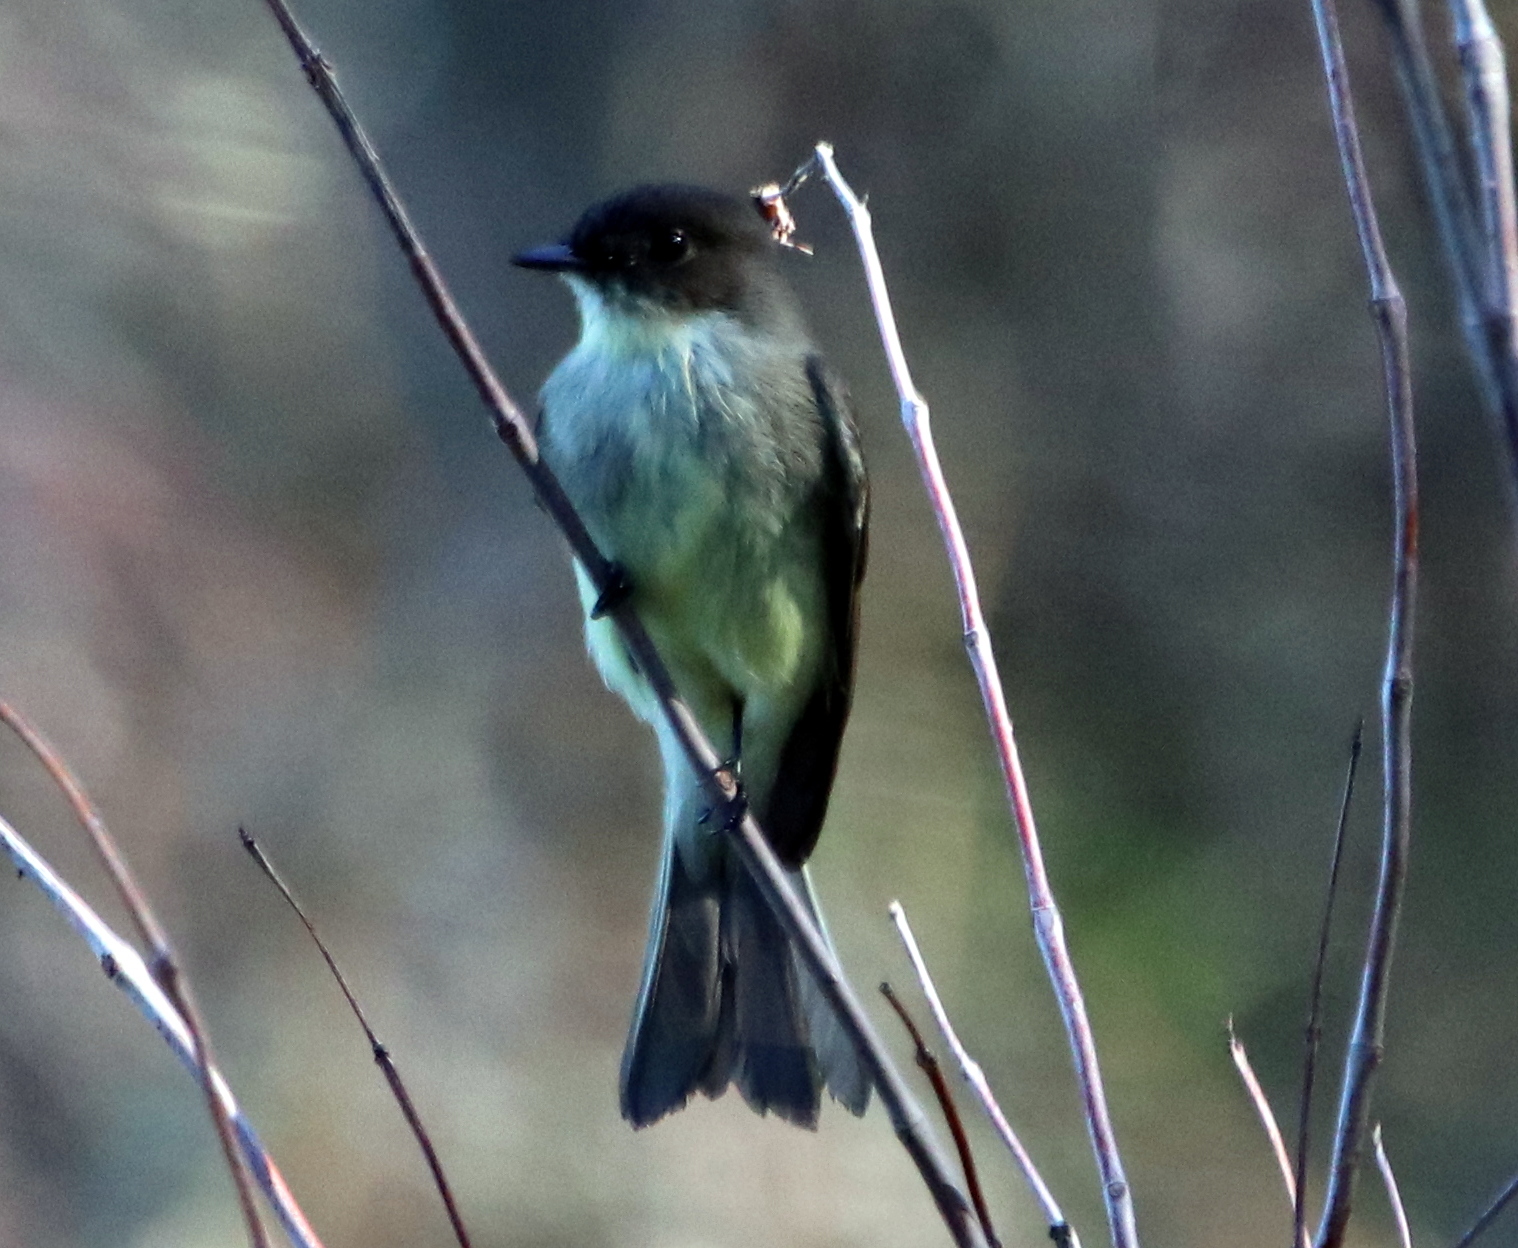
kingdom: Animalia
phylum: Chordata
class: Aves
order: Passeriformes
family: Tyrannidae
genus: Sayornis
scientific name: Sayornis phoebe
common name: Eastern phoebe
